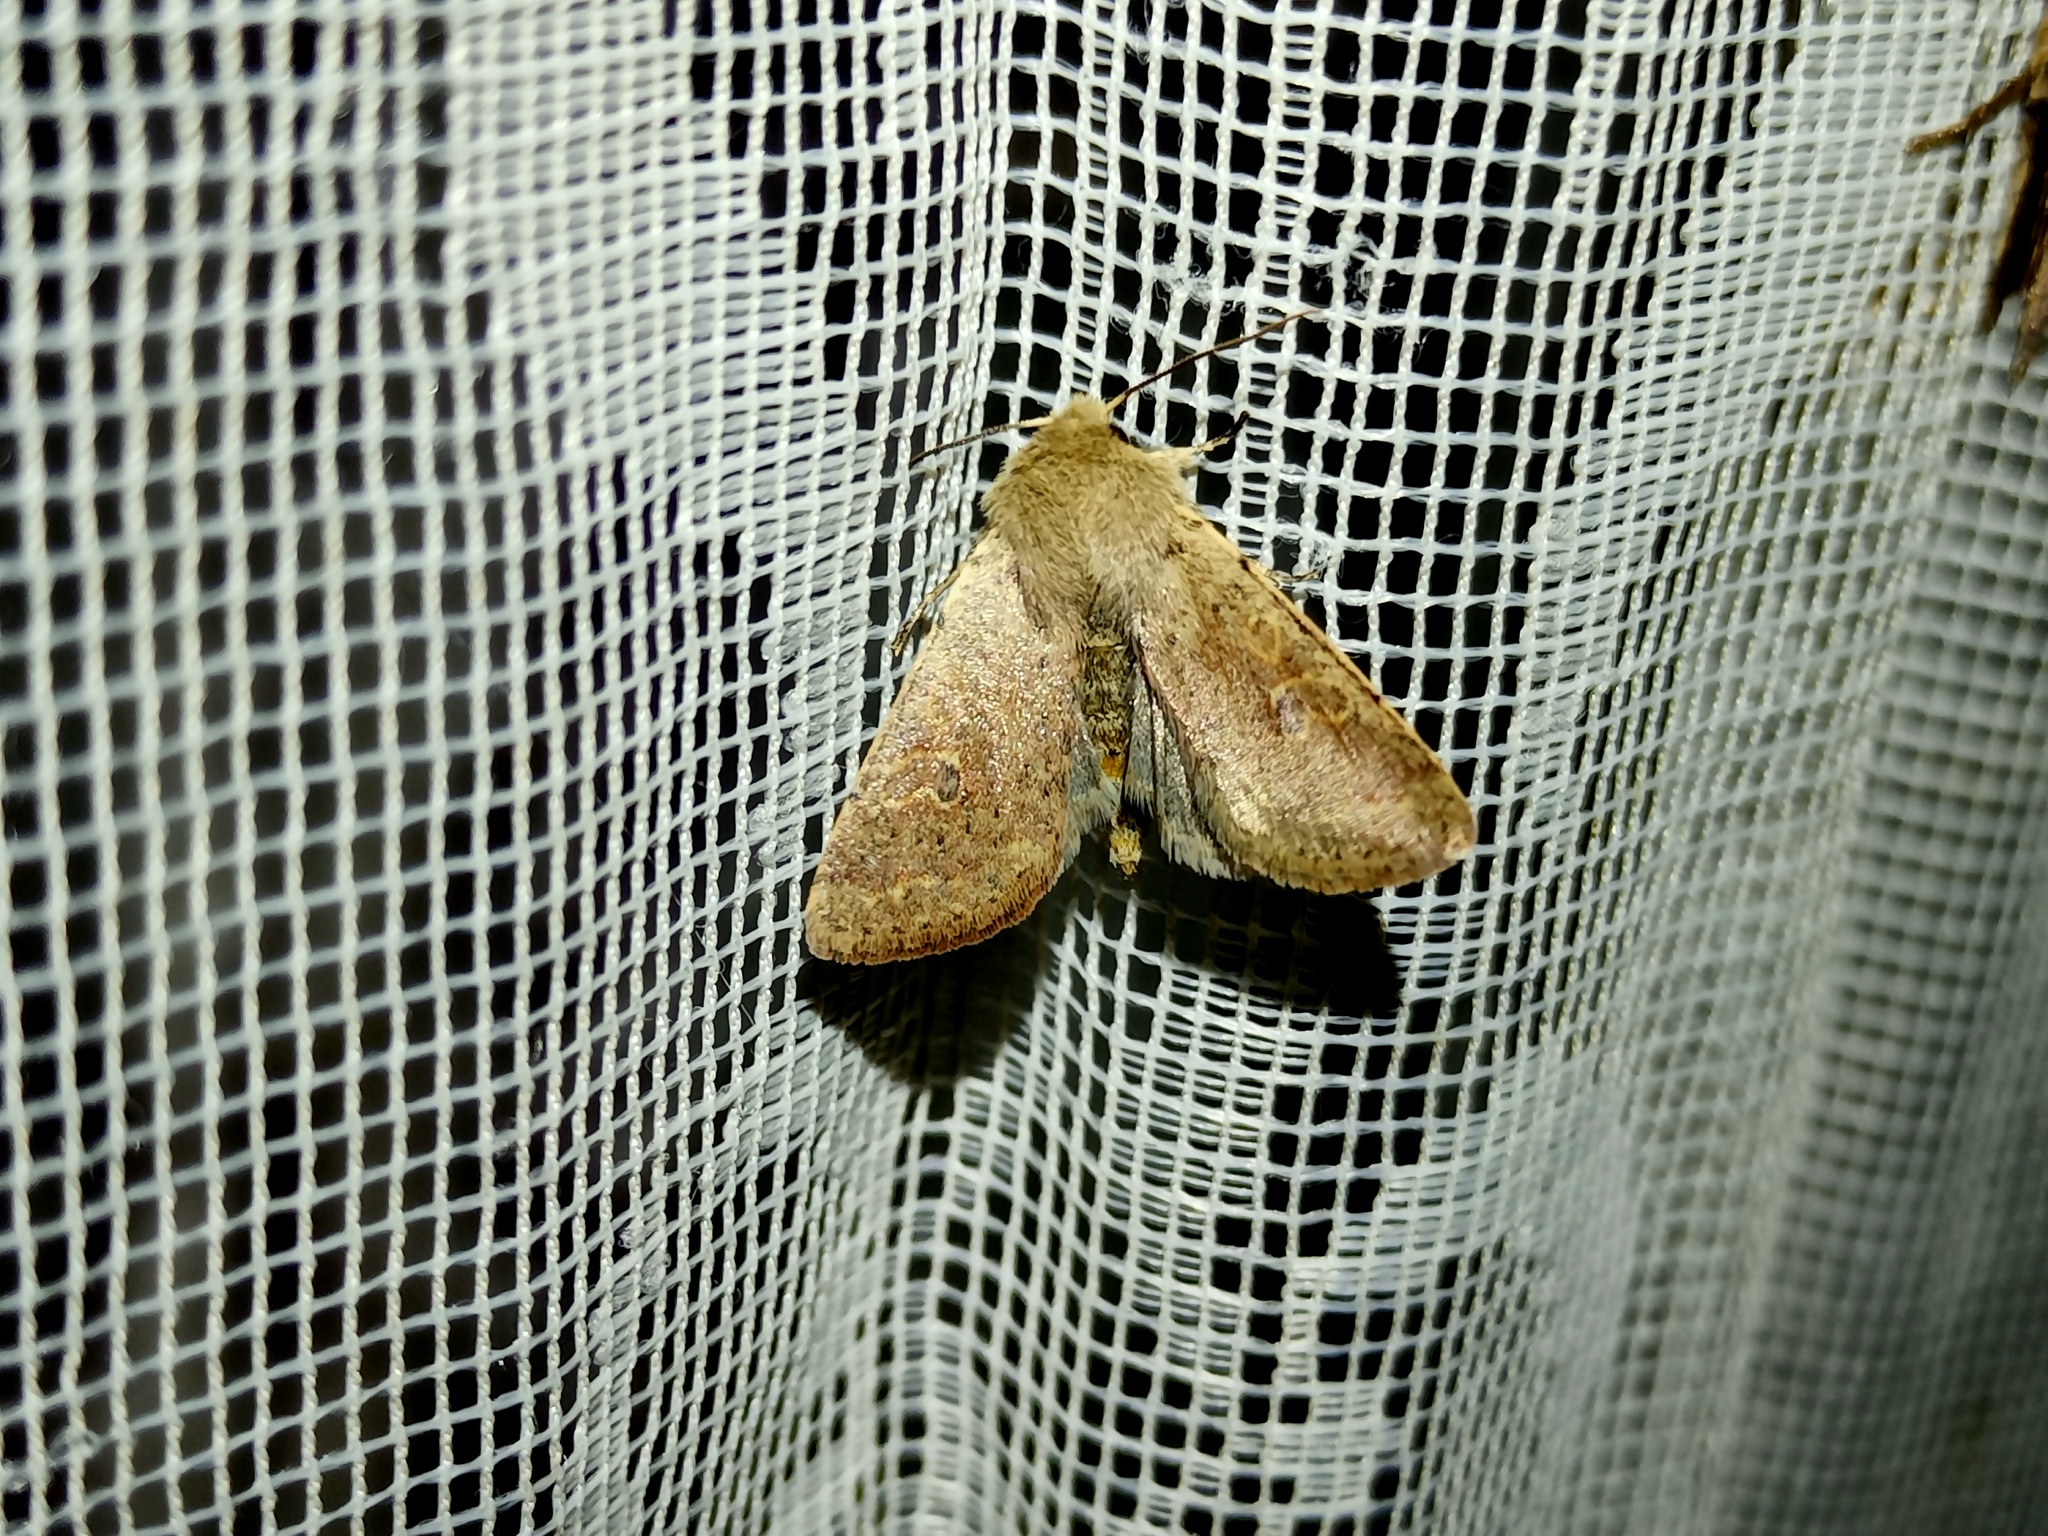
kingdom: Animalia
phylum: Arthropoda
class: Insecta
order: Lepidoptera
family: Noctuidae
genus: Orthosia
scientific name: Orthosia cruda
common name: Small quaker
